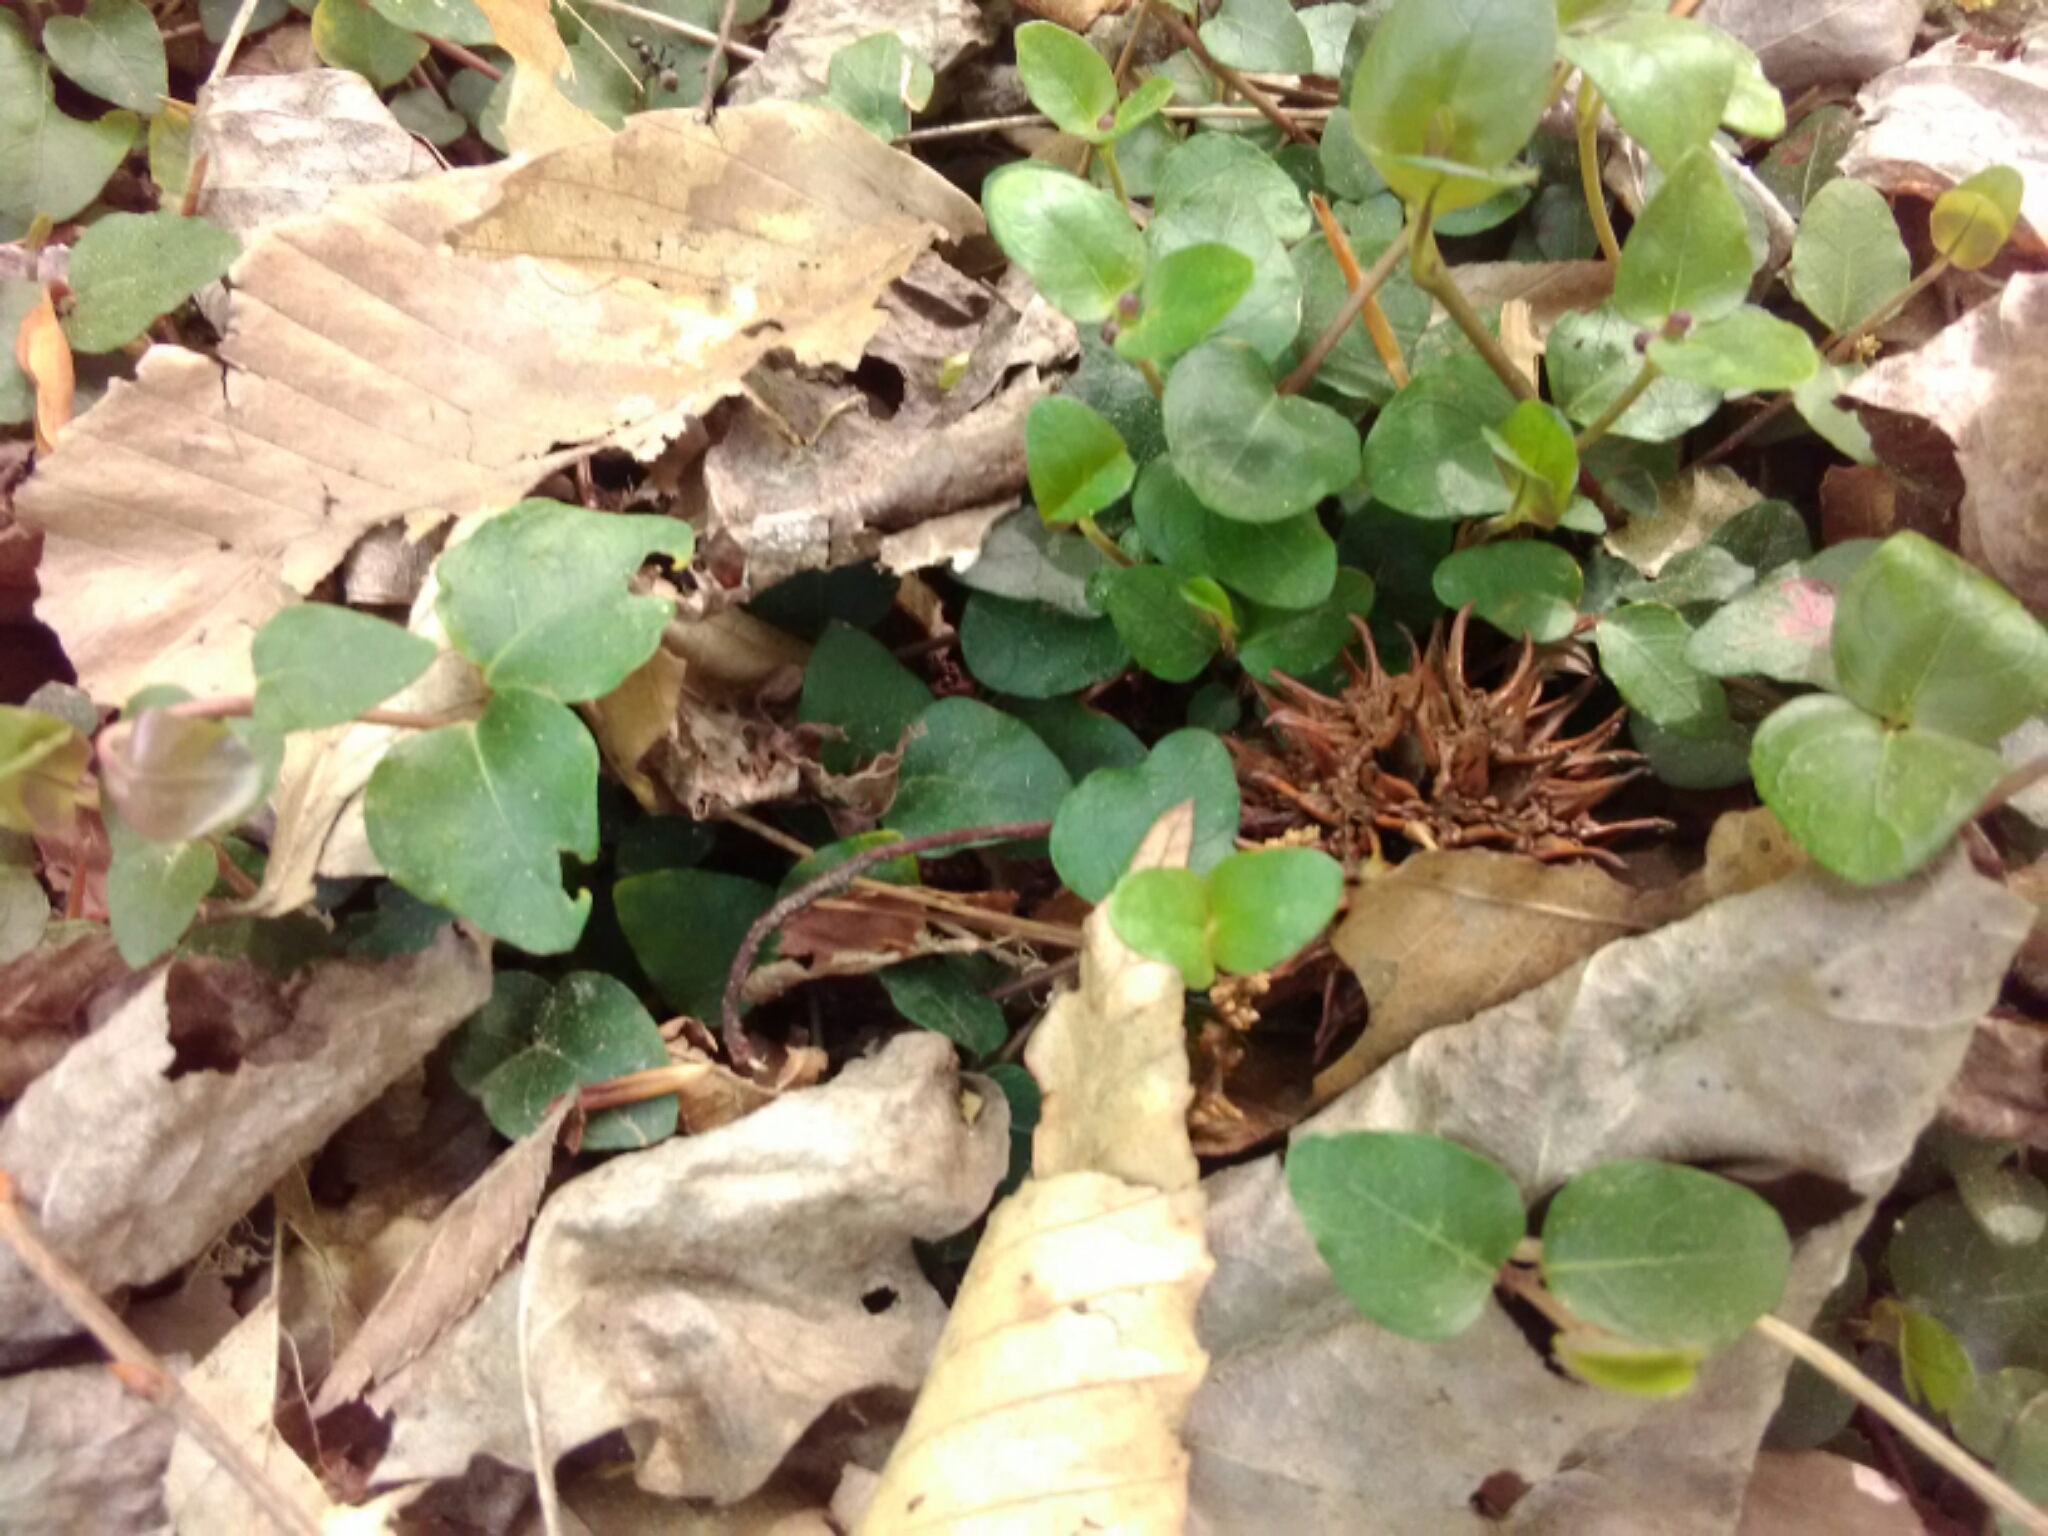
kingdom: Plantae
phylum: Tracheophyta
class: Magnoliopsida
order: Gentianales
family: Rubiaceae
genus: Mitchella
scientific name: Mitchella repens
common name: Partridge-berry
